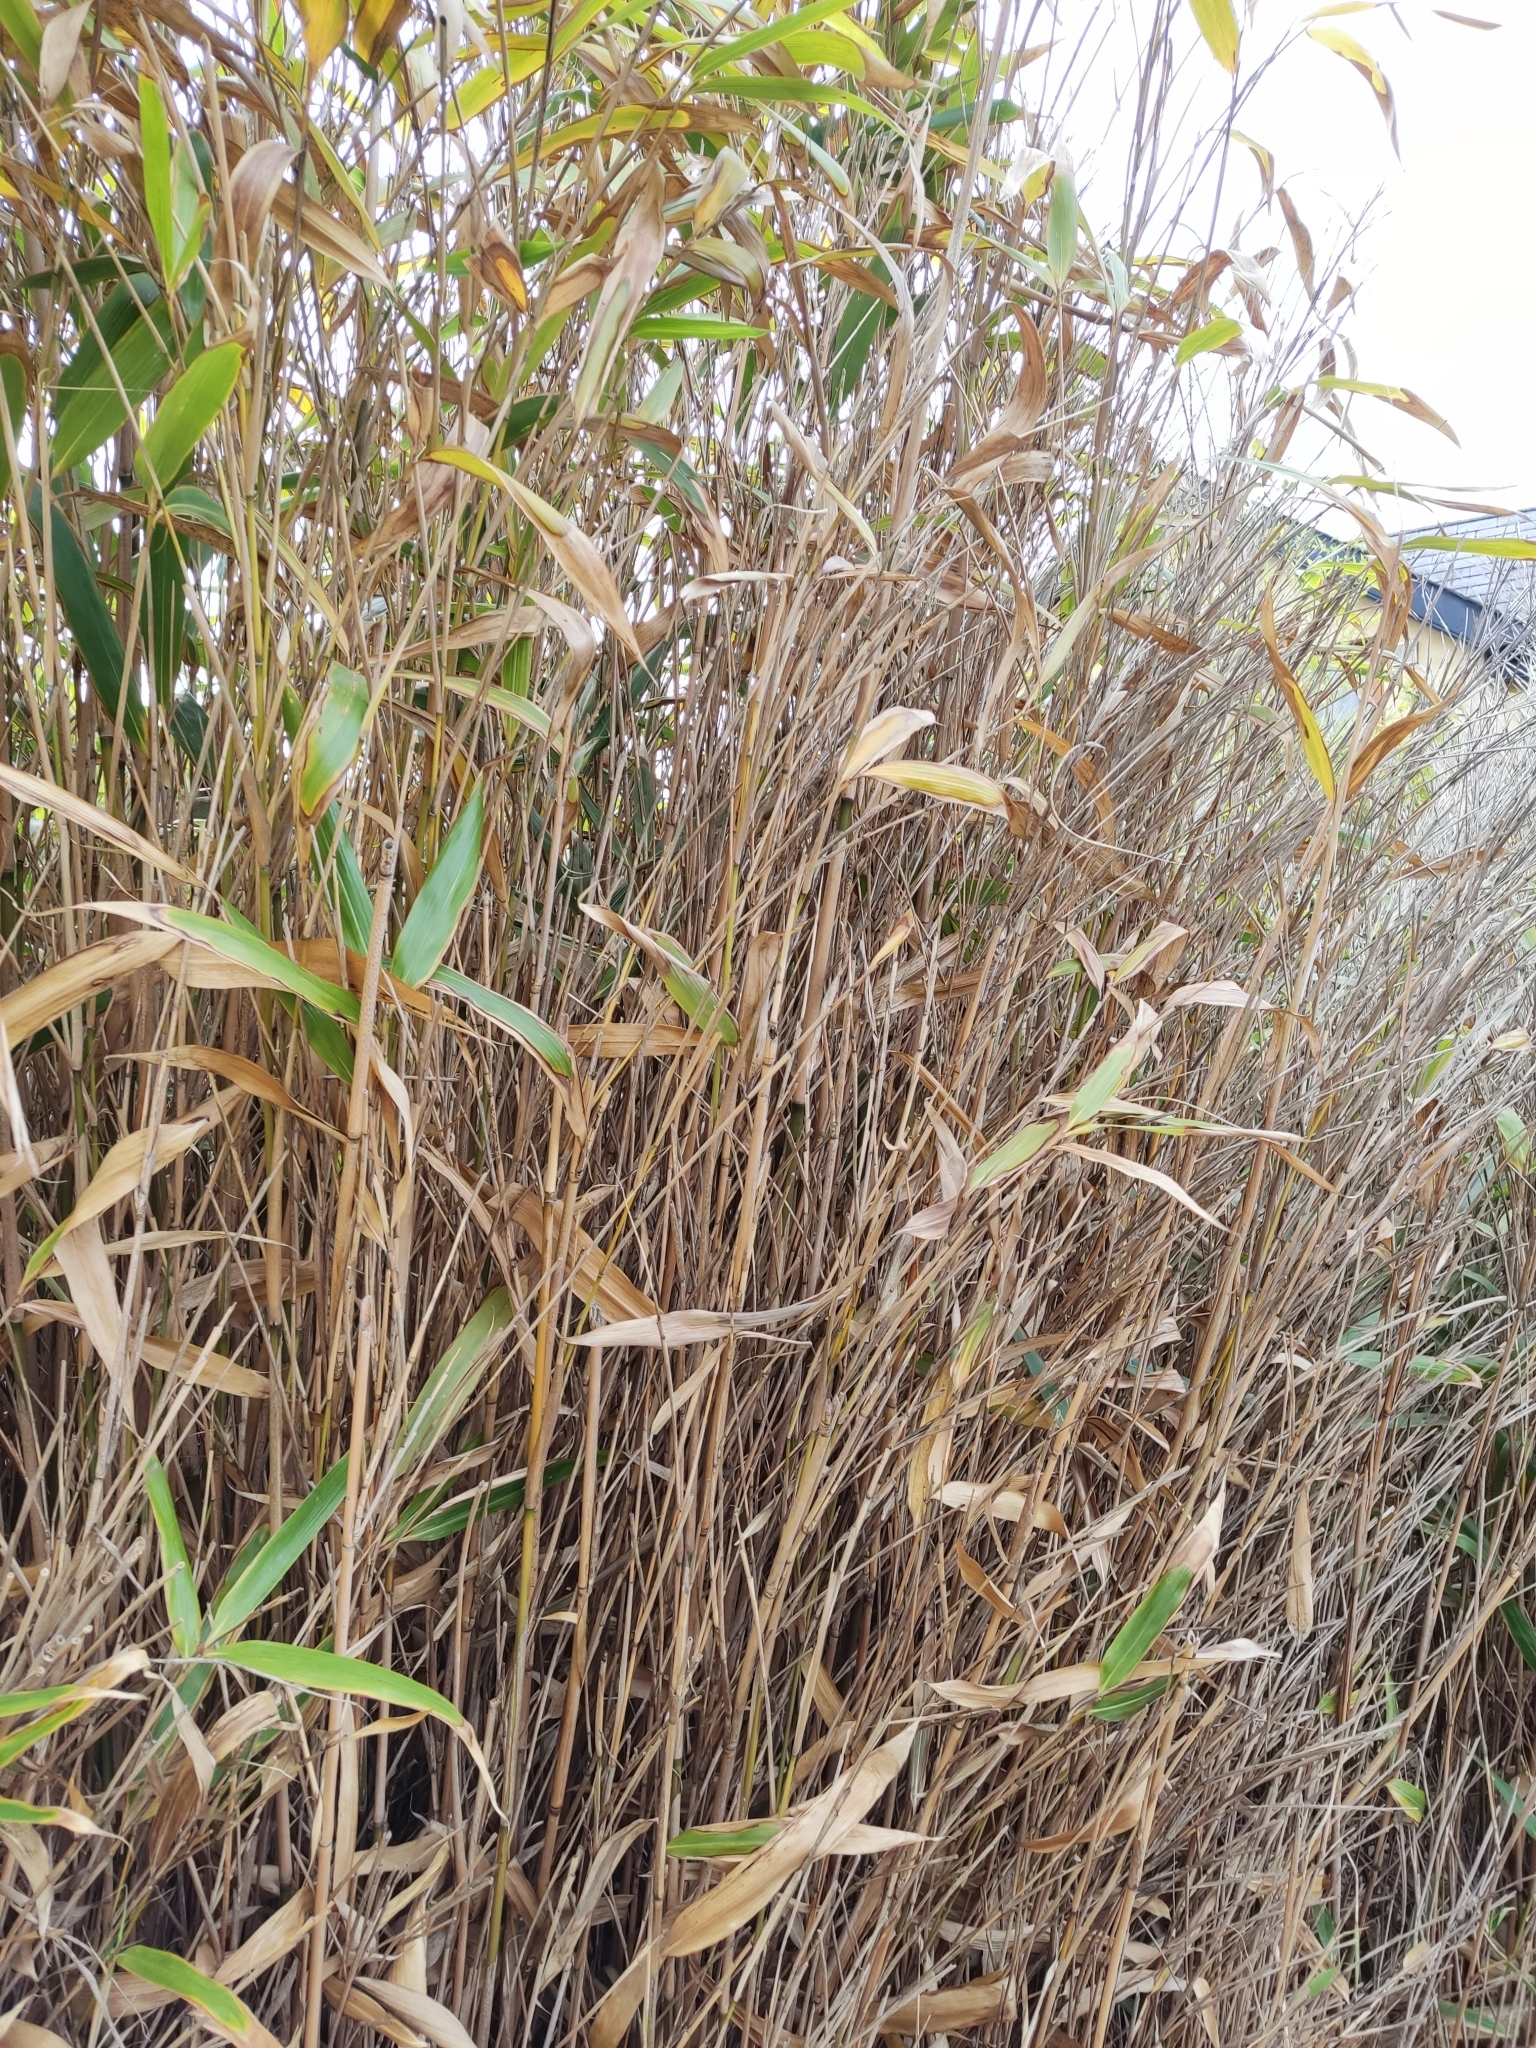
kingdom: Plantae
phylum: Tracheophyta
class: Liliopsida
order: Poales
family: Poaceae
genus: Pseudosasa
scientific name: Pseudosasa japonica
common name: Arrow bamboo
